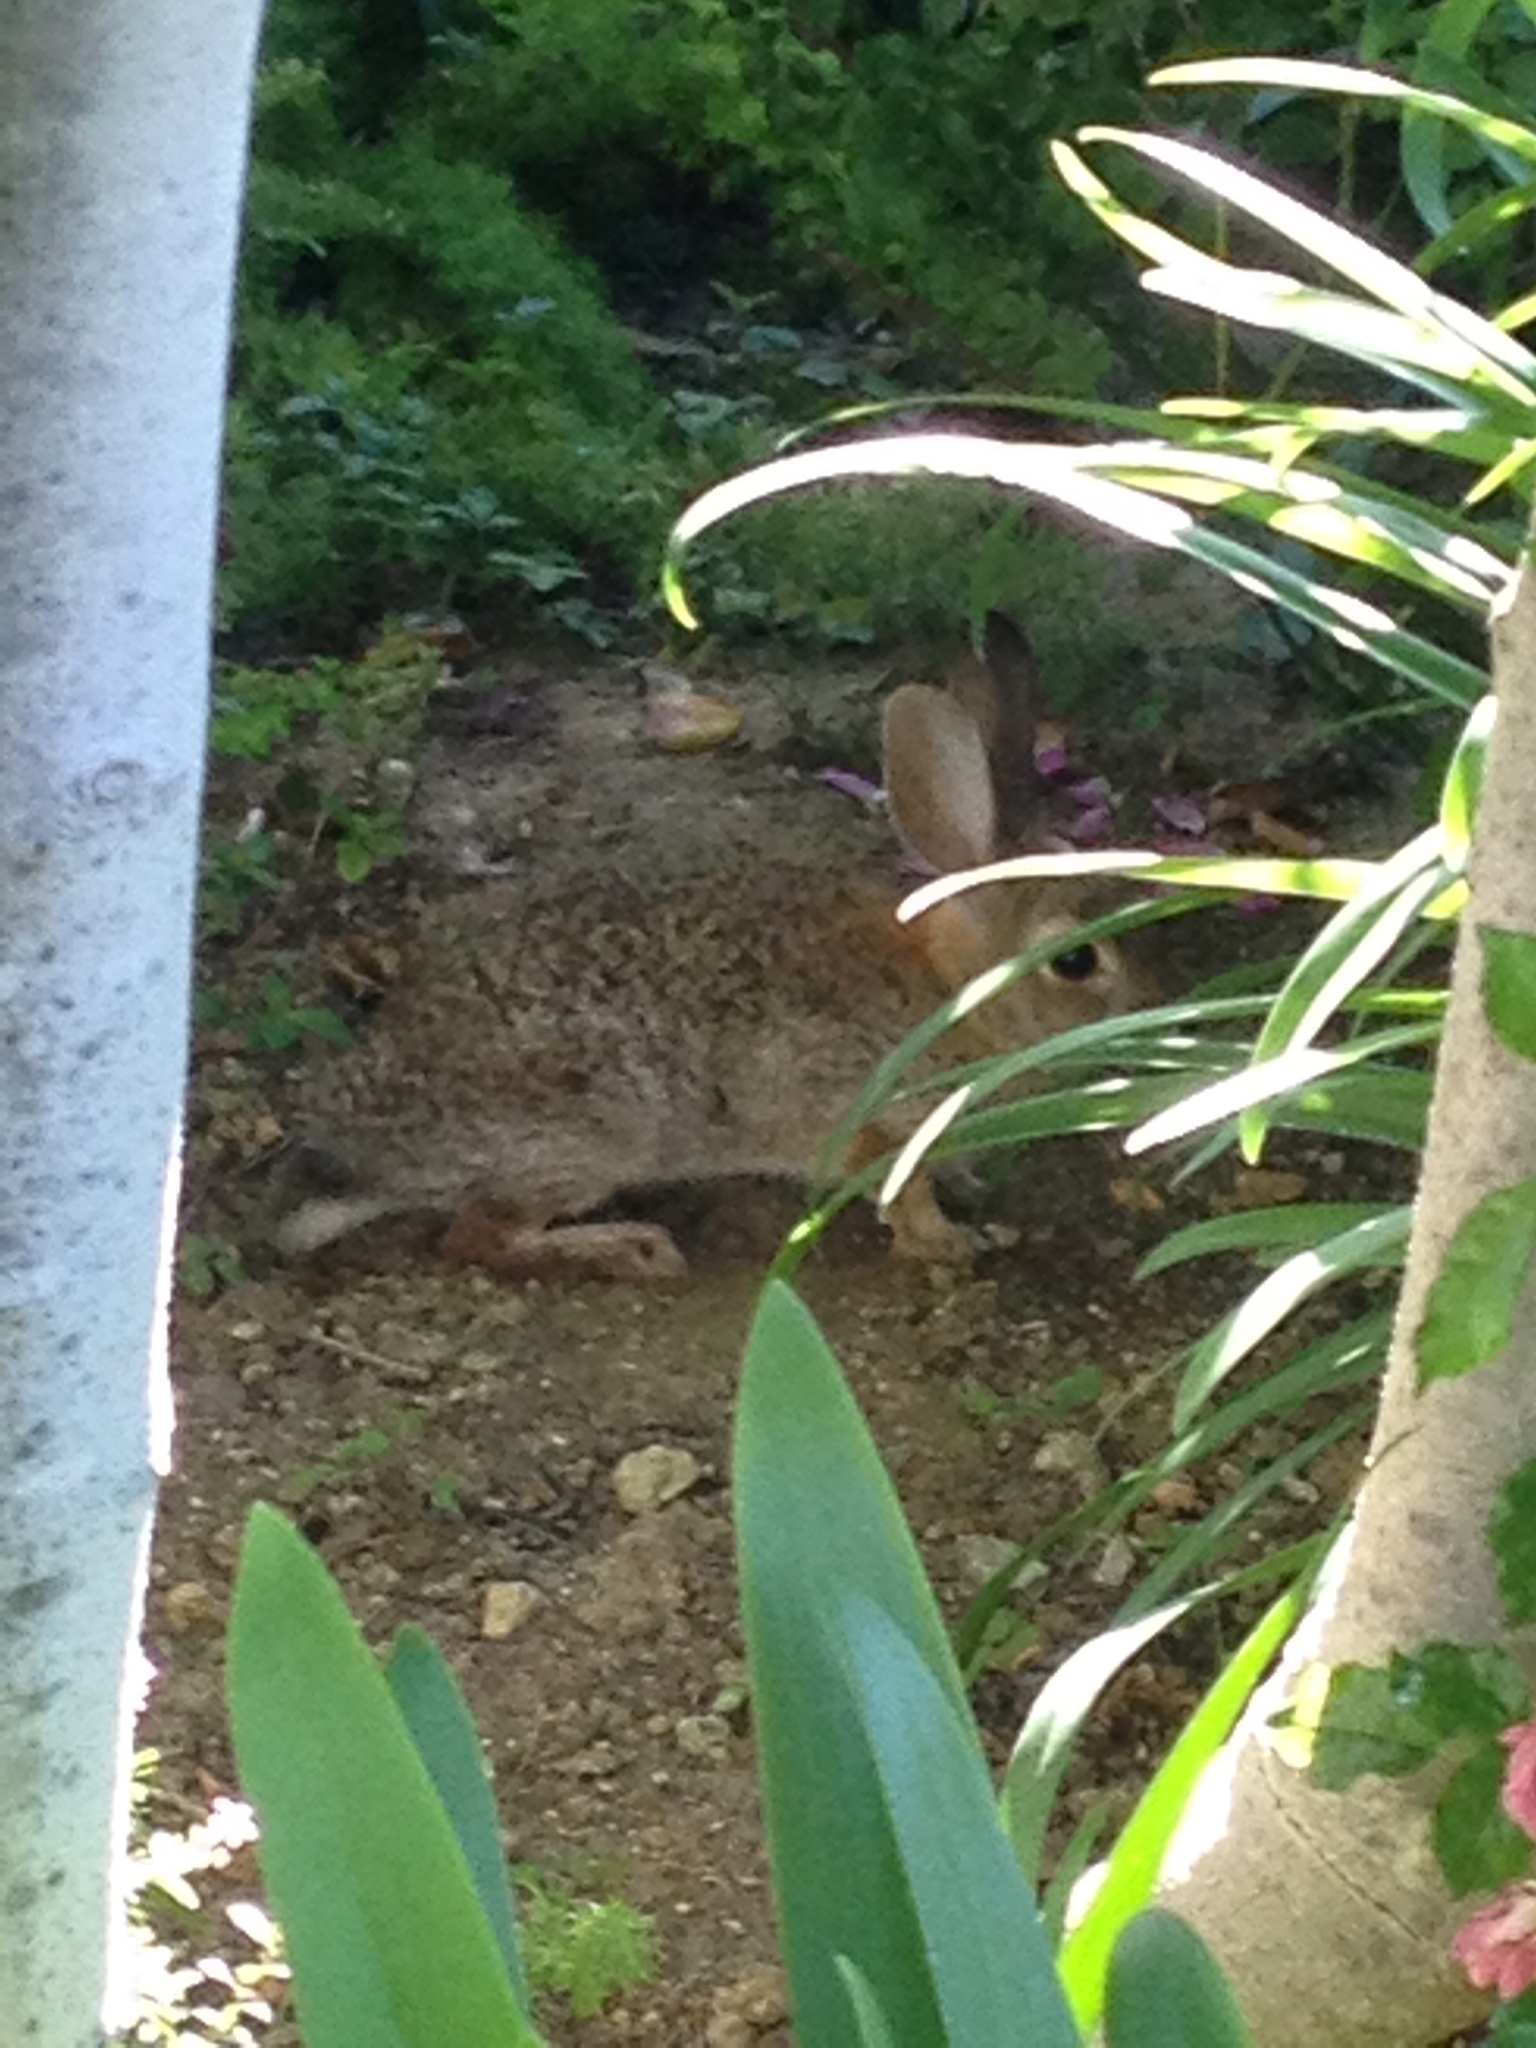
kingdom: Animalia
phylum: Chordata
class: Mammalia
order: Lagomorpha
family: Leporidae
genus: Sylvilagus
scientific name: Sylvilagus audubonii
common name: Desert cottontail
